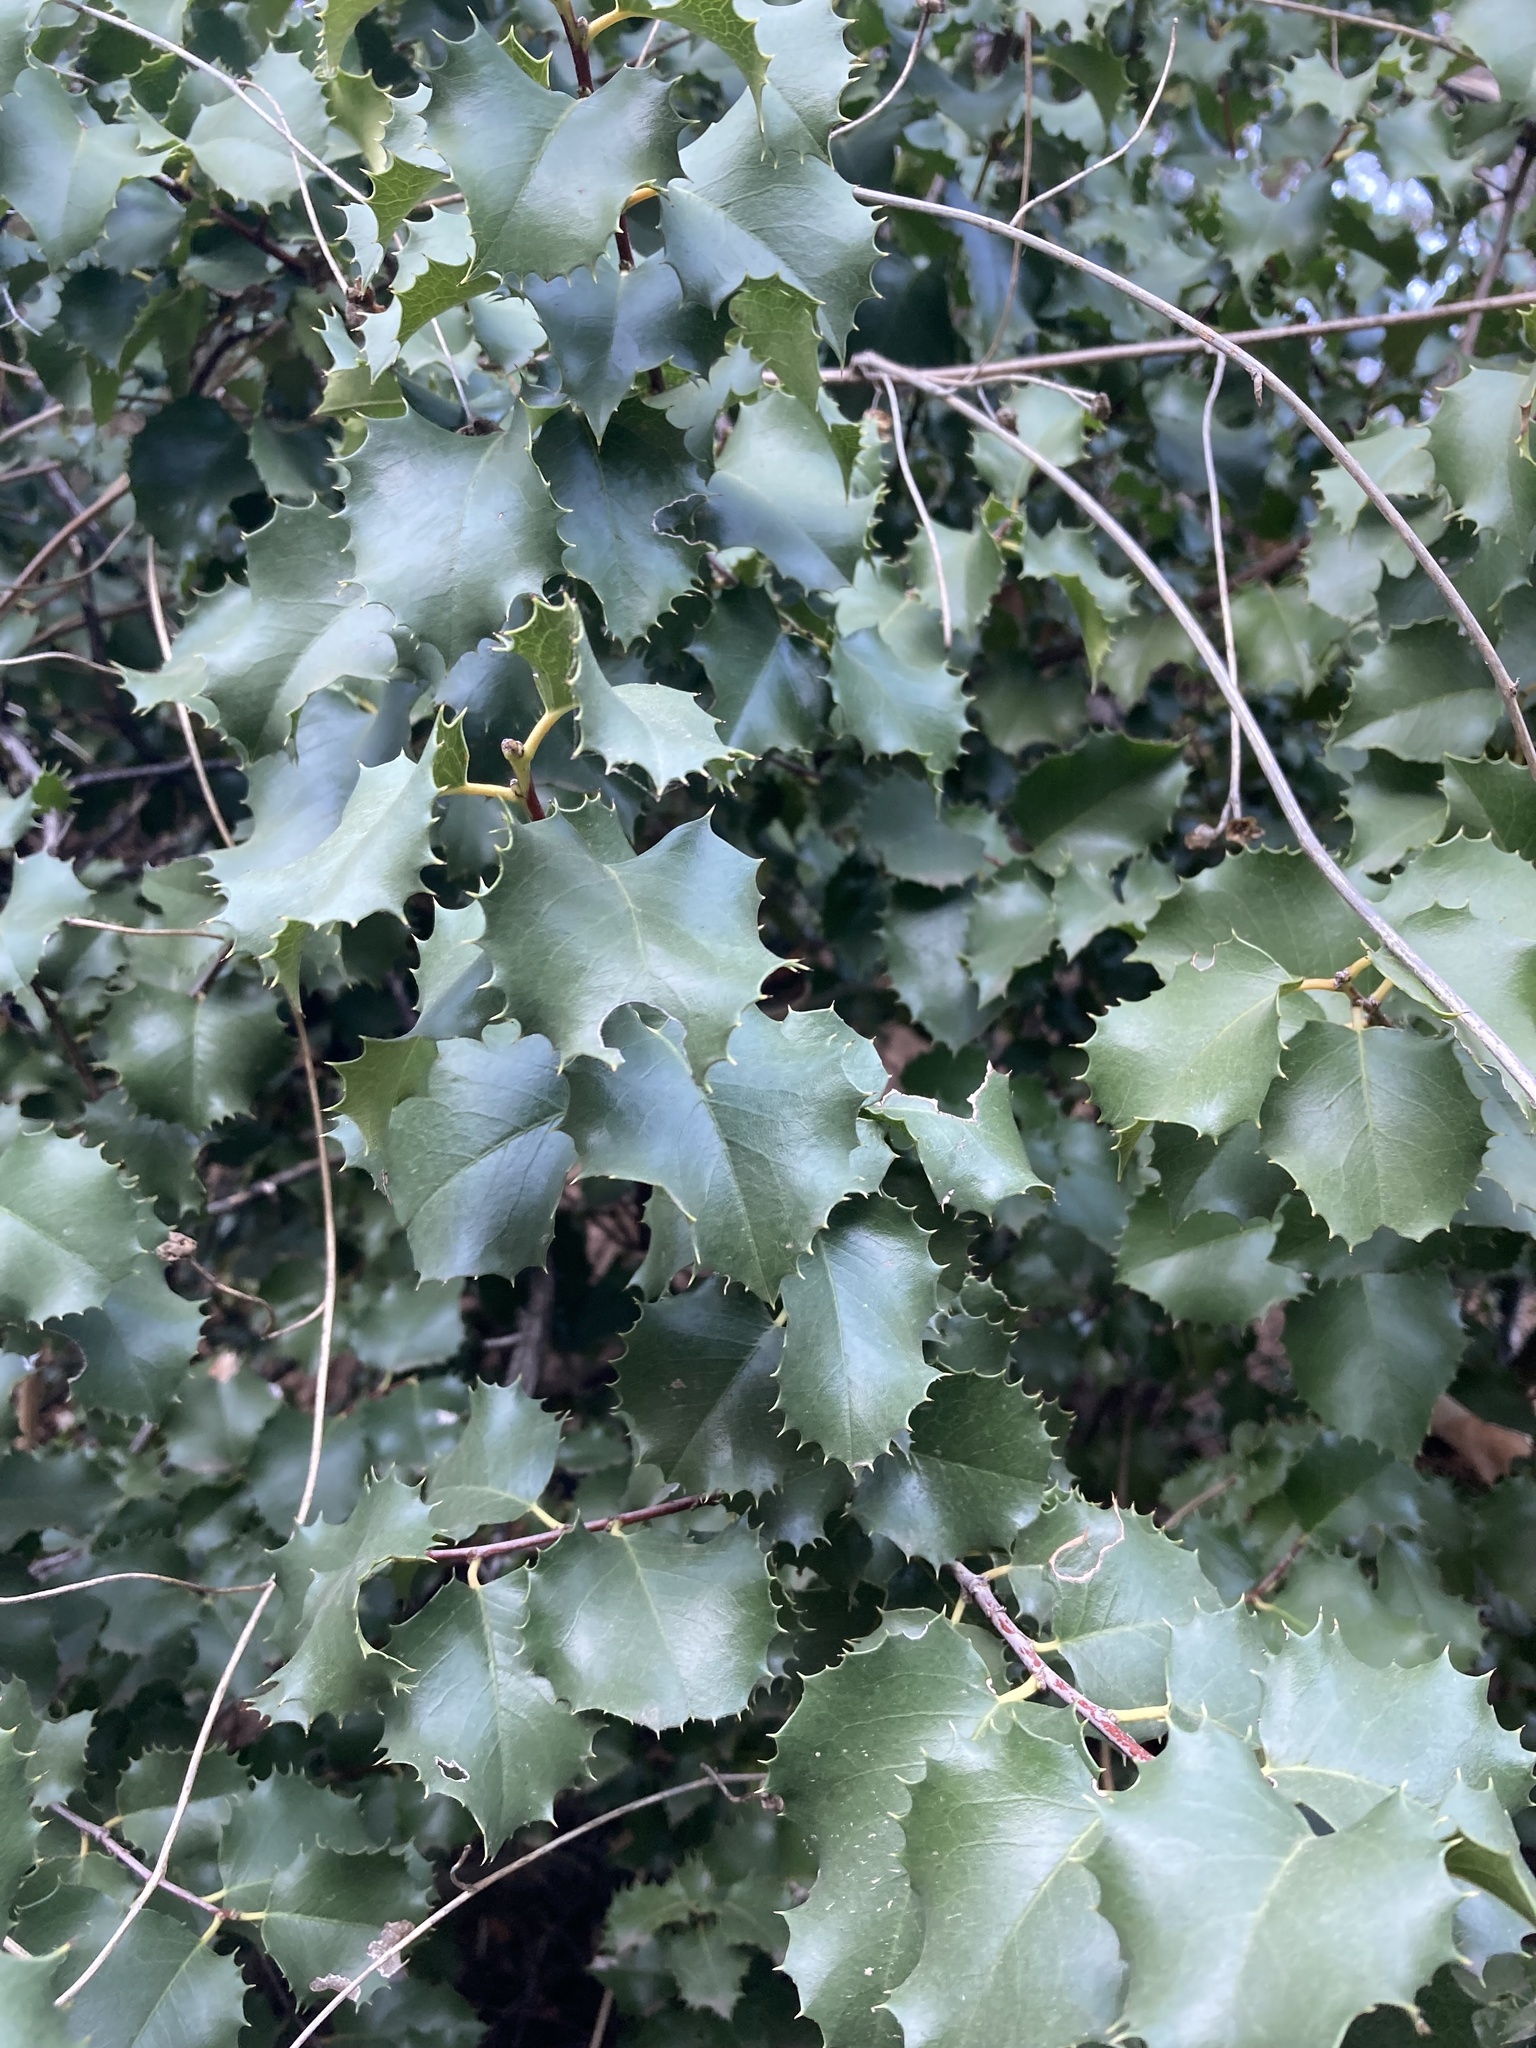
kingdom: Plantae
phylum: Tracheophyta
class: Magnoliopsida
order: Rosales
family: Rosaceae
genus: Prunus
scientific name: Prunus ilicifolia
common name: Hollyleaf cherry
